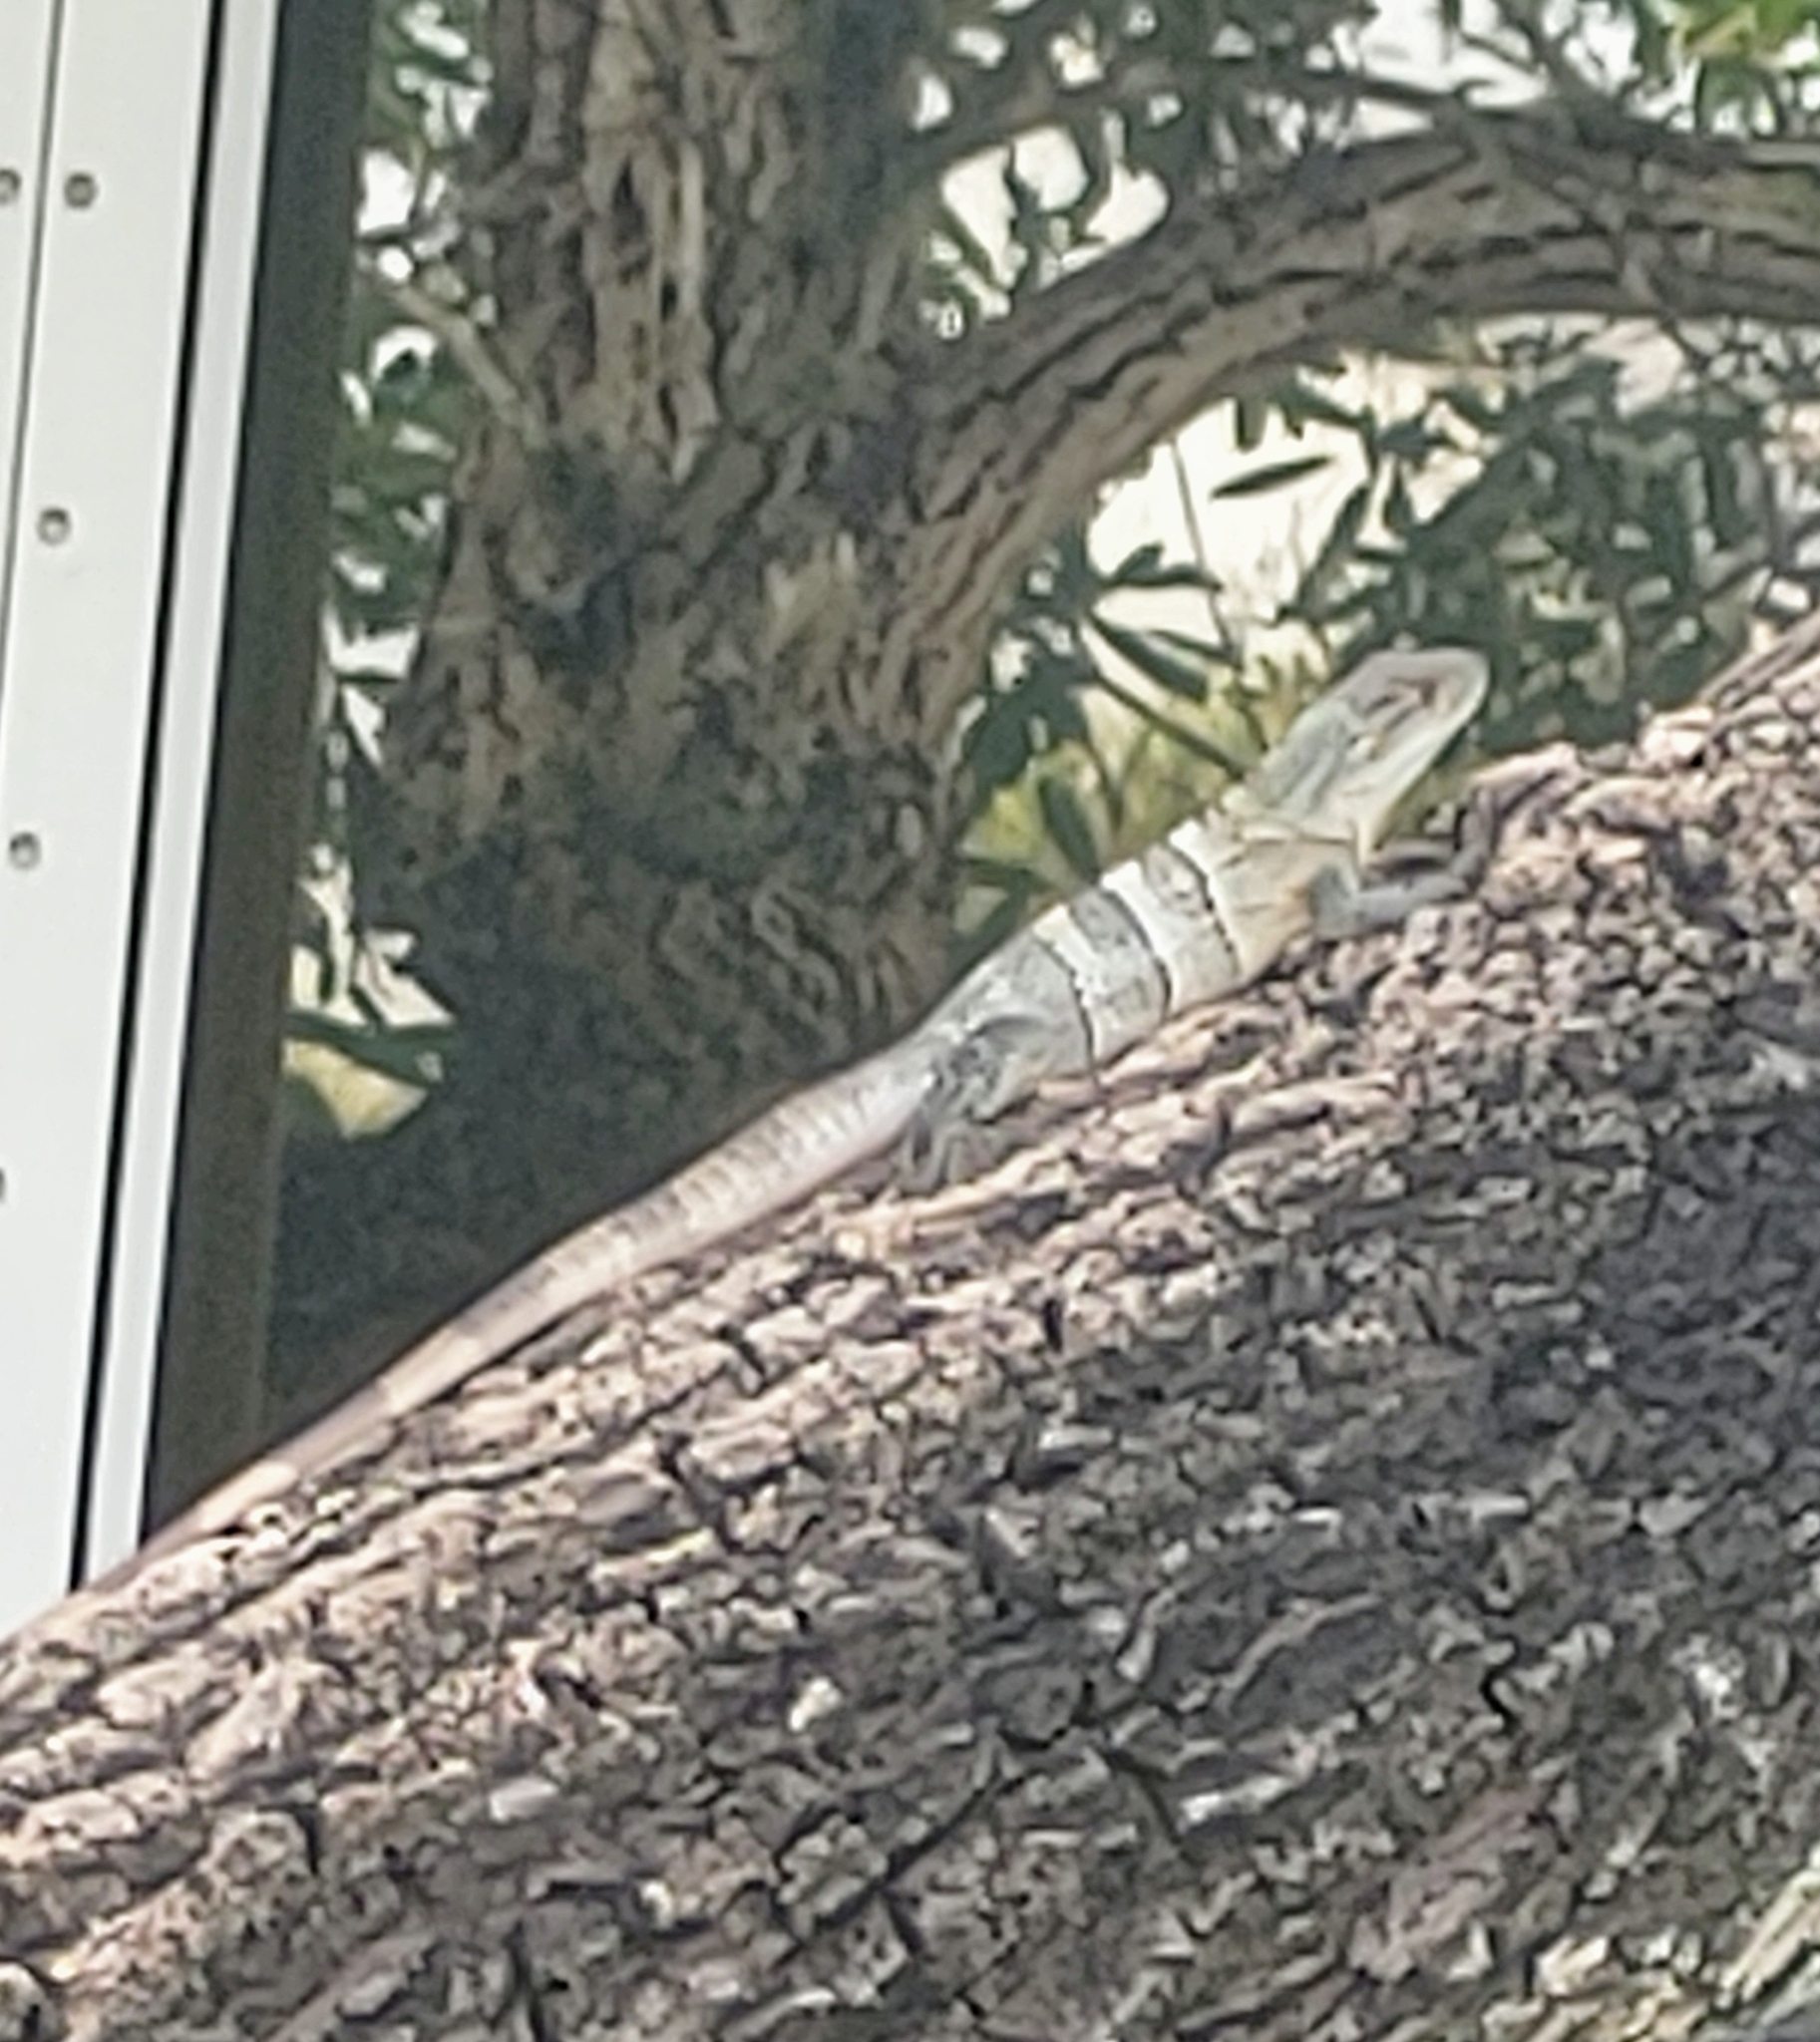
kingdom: Animalia
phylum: Chordata
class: Squamata
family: Iguanidae
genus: Ctenosaura
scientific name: Ctenosaura similis
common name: Black spiny-tailed iguana
